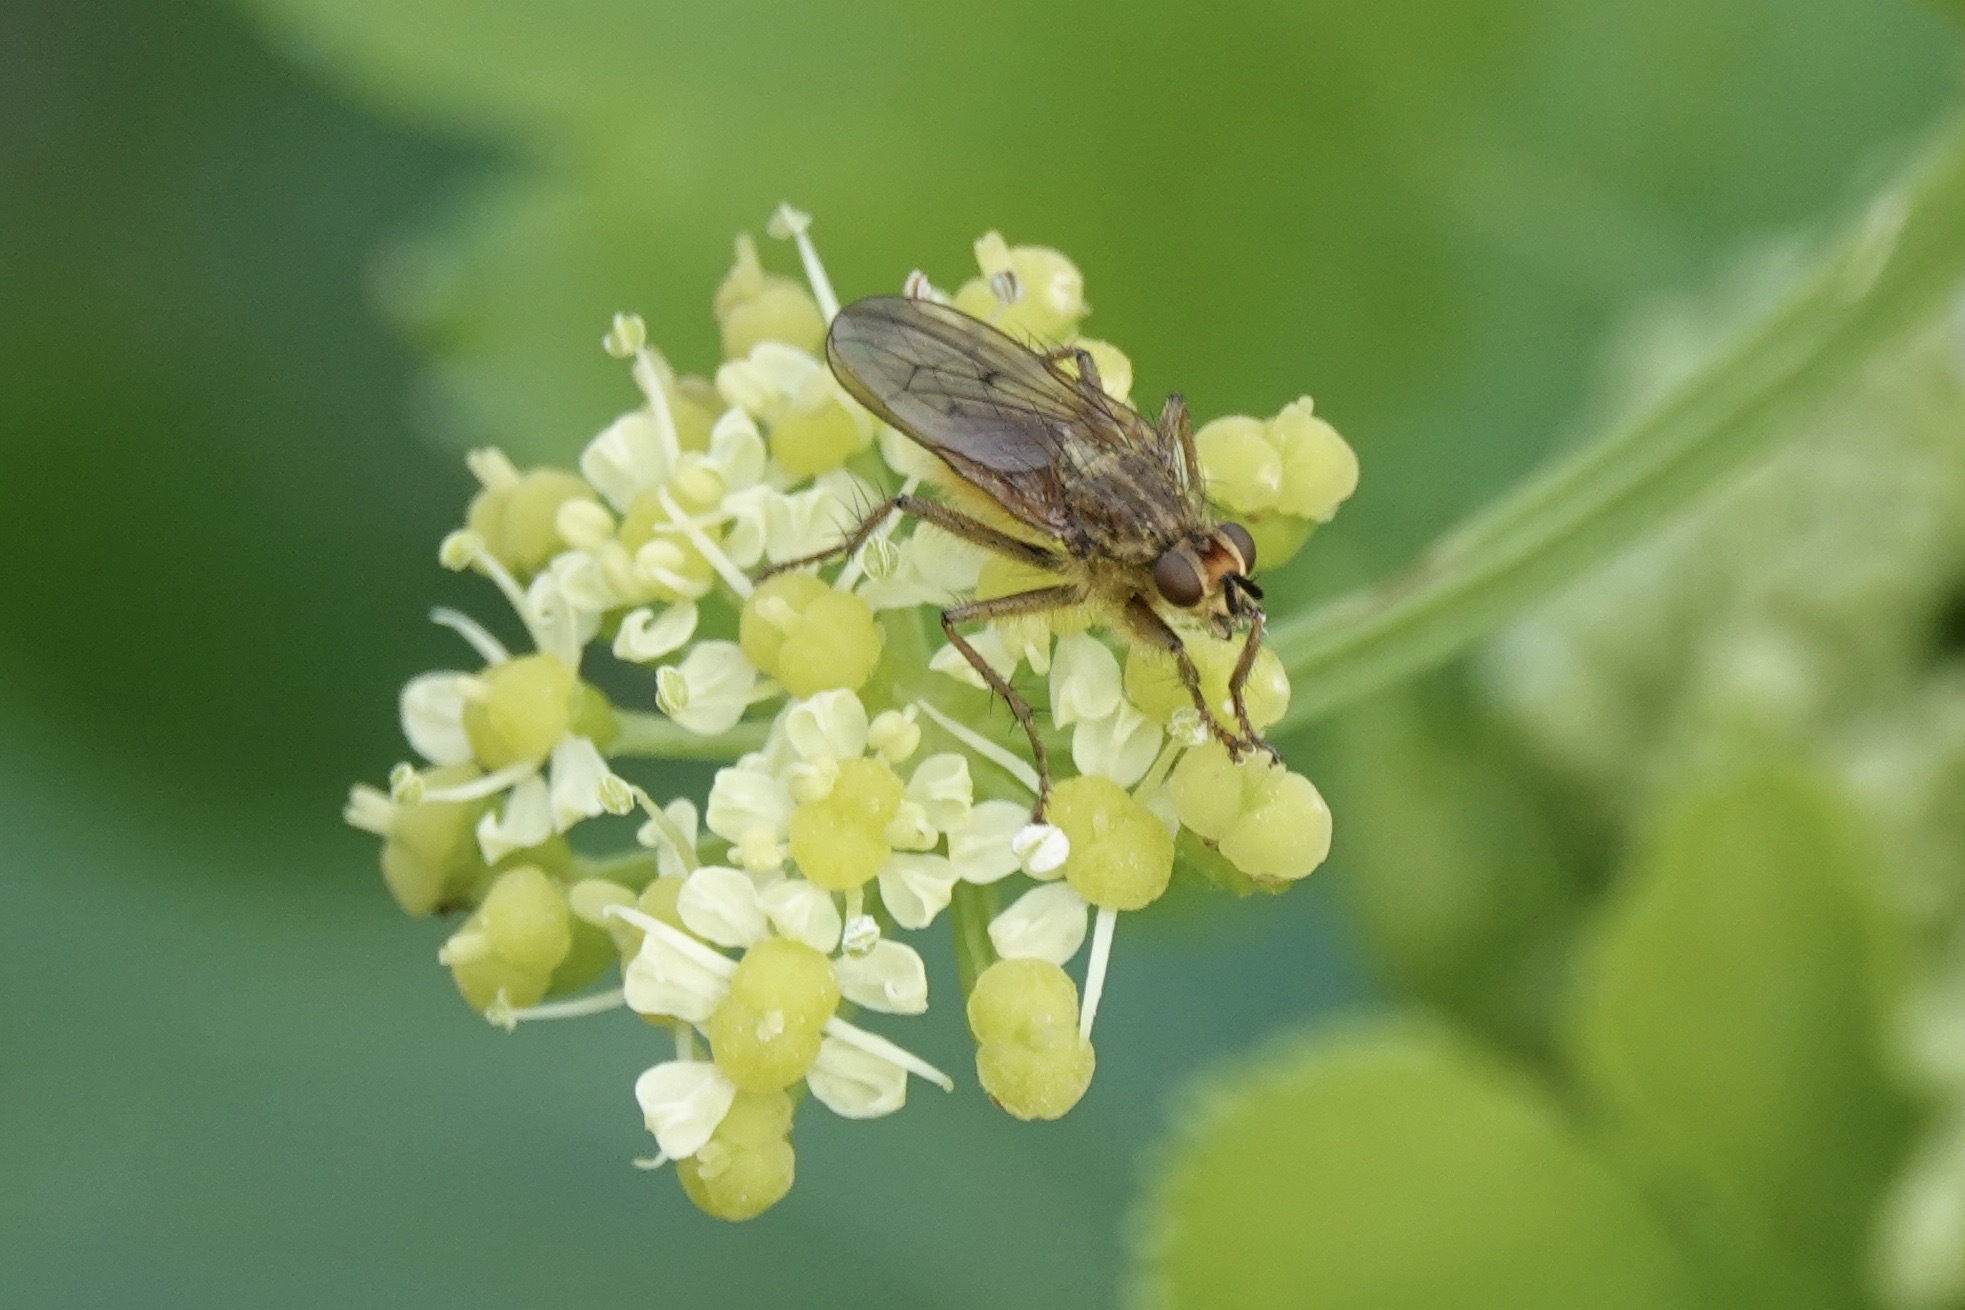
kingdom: Animalia
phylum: Arthropoda
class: Insecta
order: Diptera
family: Scathophagidae
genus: Scathophaga
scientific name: Scathophaga stercoraria
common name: Yellow dung fly
